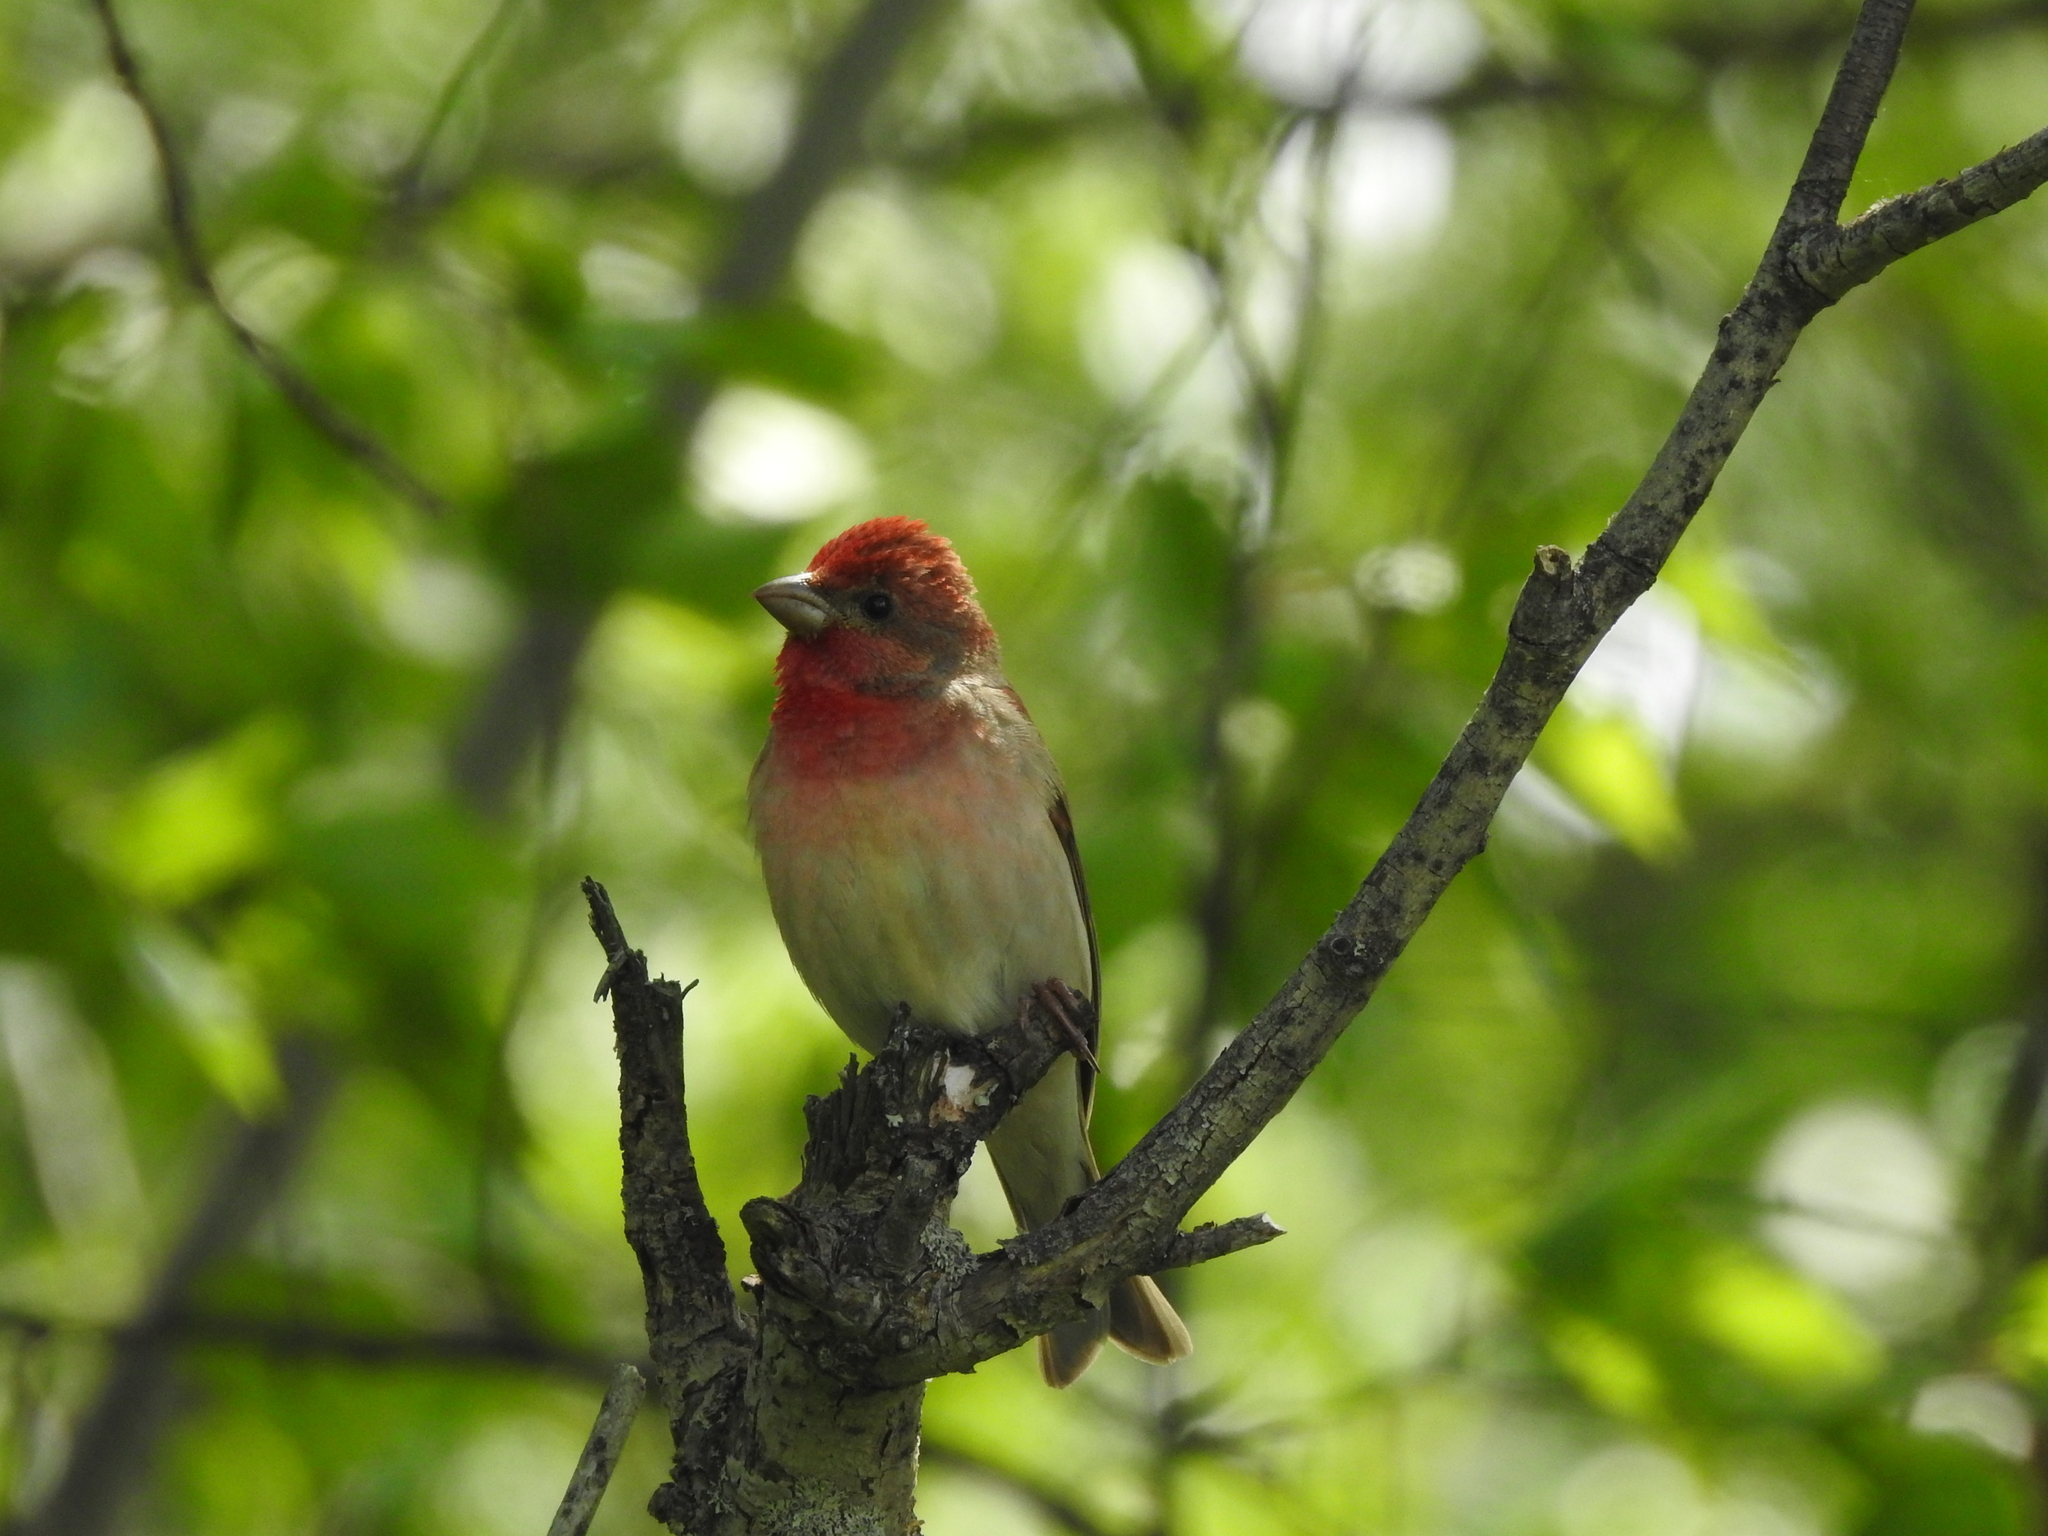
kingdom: Animalia
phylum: Chordata
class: Aves
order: Passeriformes
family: Fringillidae
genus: Carpodacus
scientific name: Carpodacus erythrinus
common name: Common rosefinch
